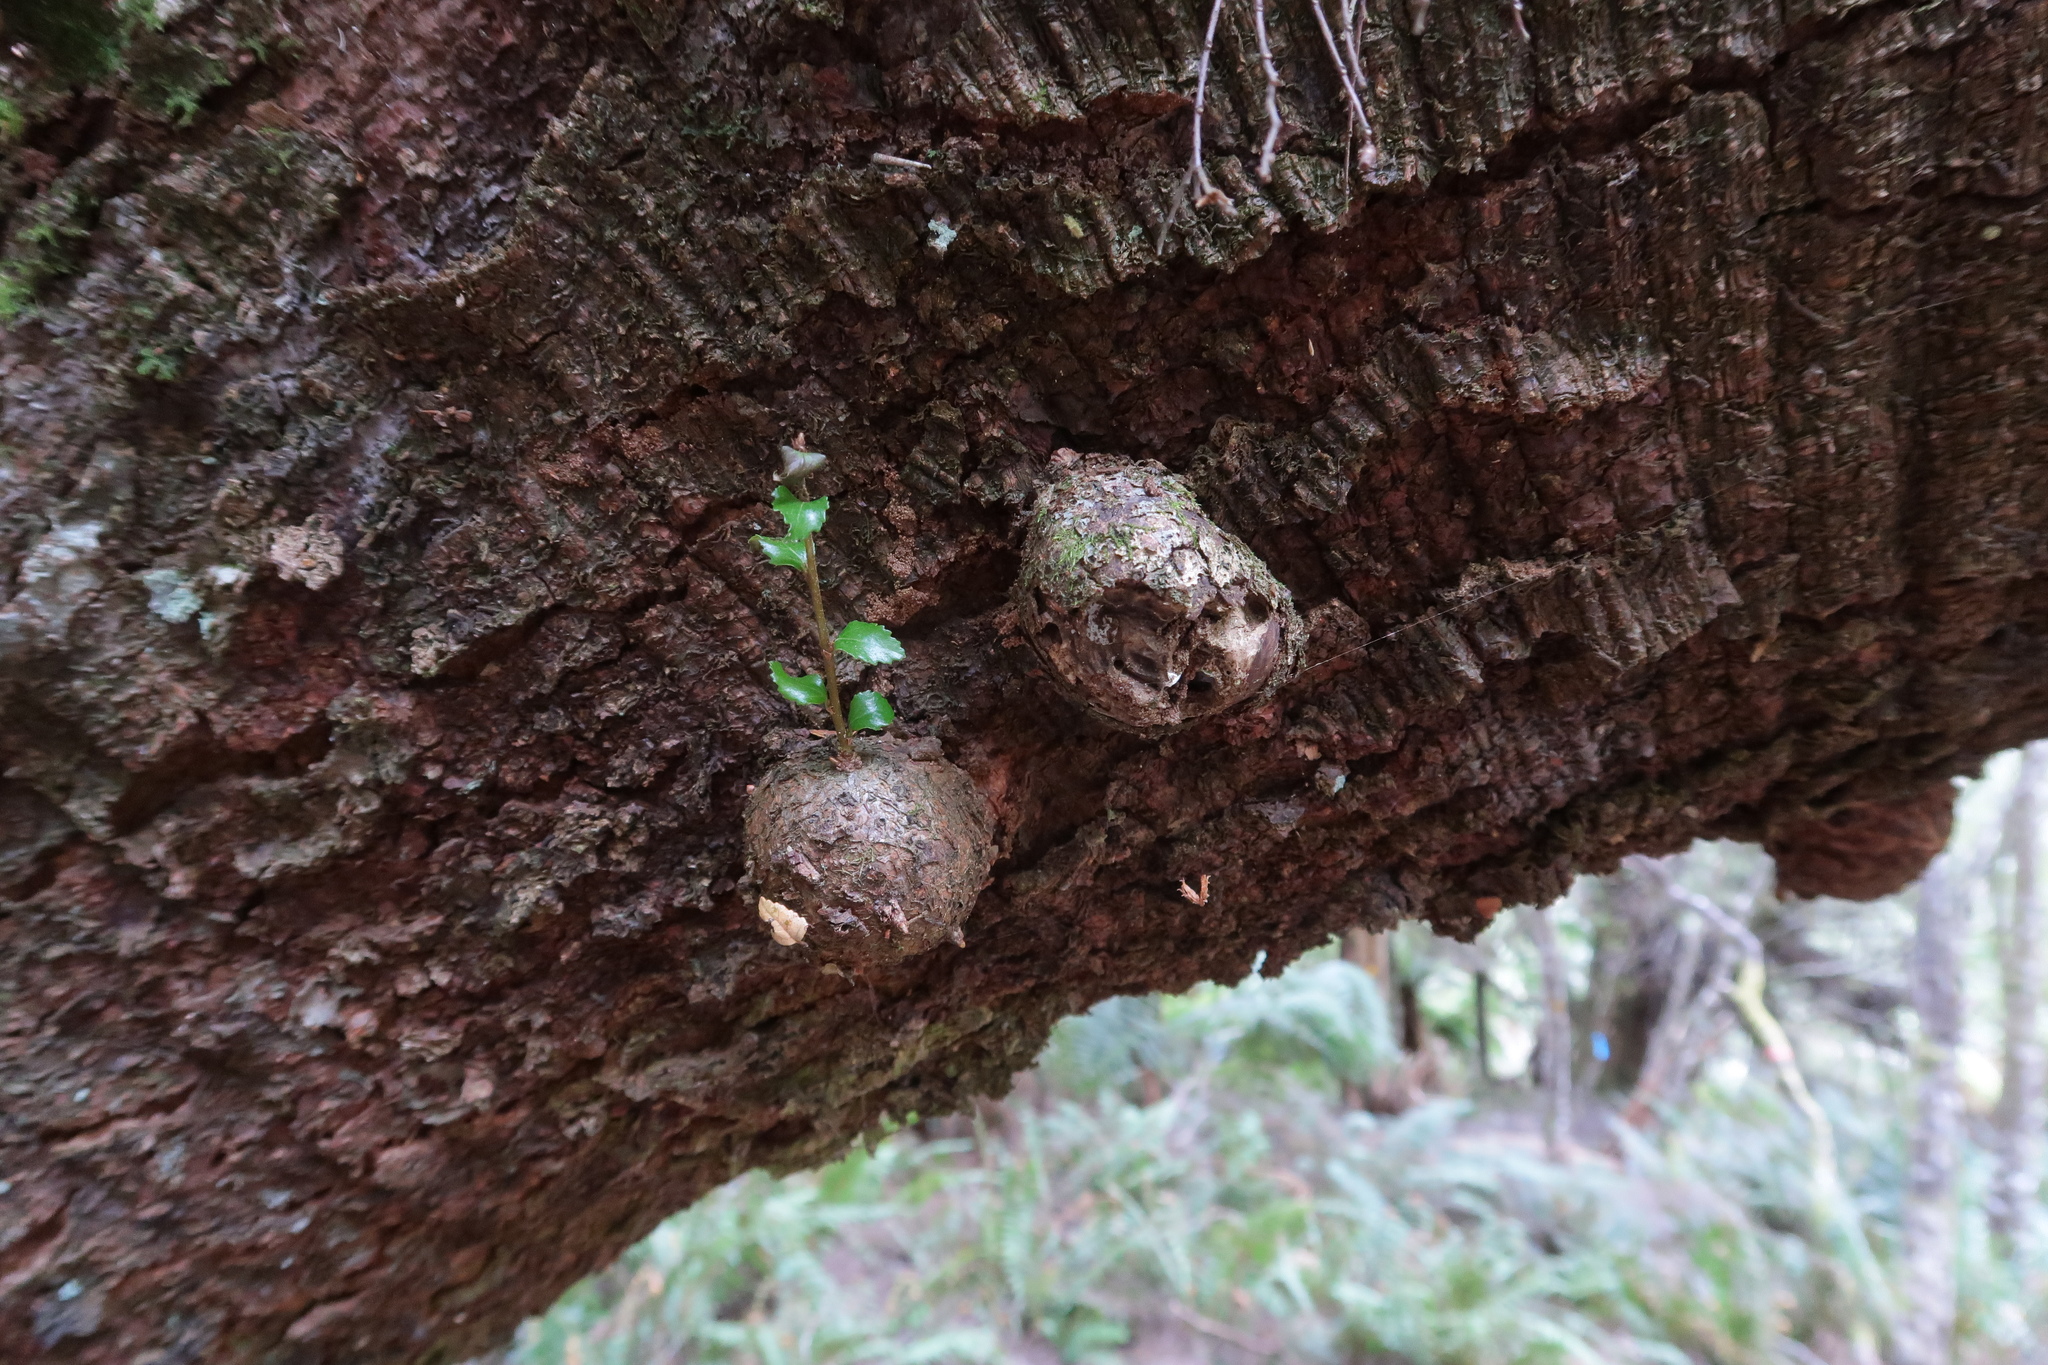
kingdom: Plantae
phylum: Tracheophyta
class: Magnoliopsida
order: Fagales
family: Nothofagaceae
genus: Nothofagus
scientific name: Nothofagus cunninghamii
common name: Myrtle beech
